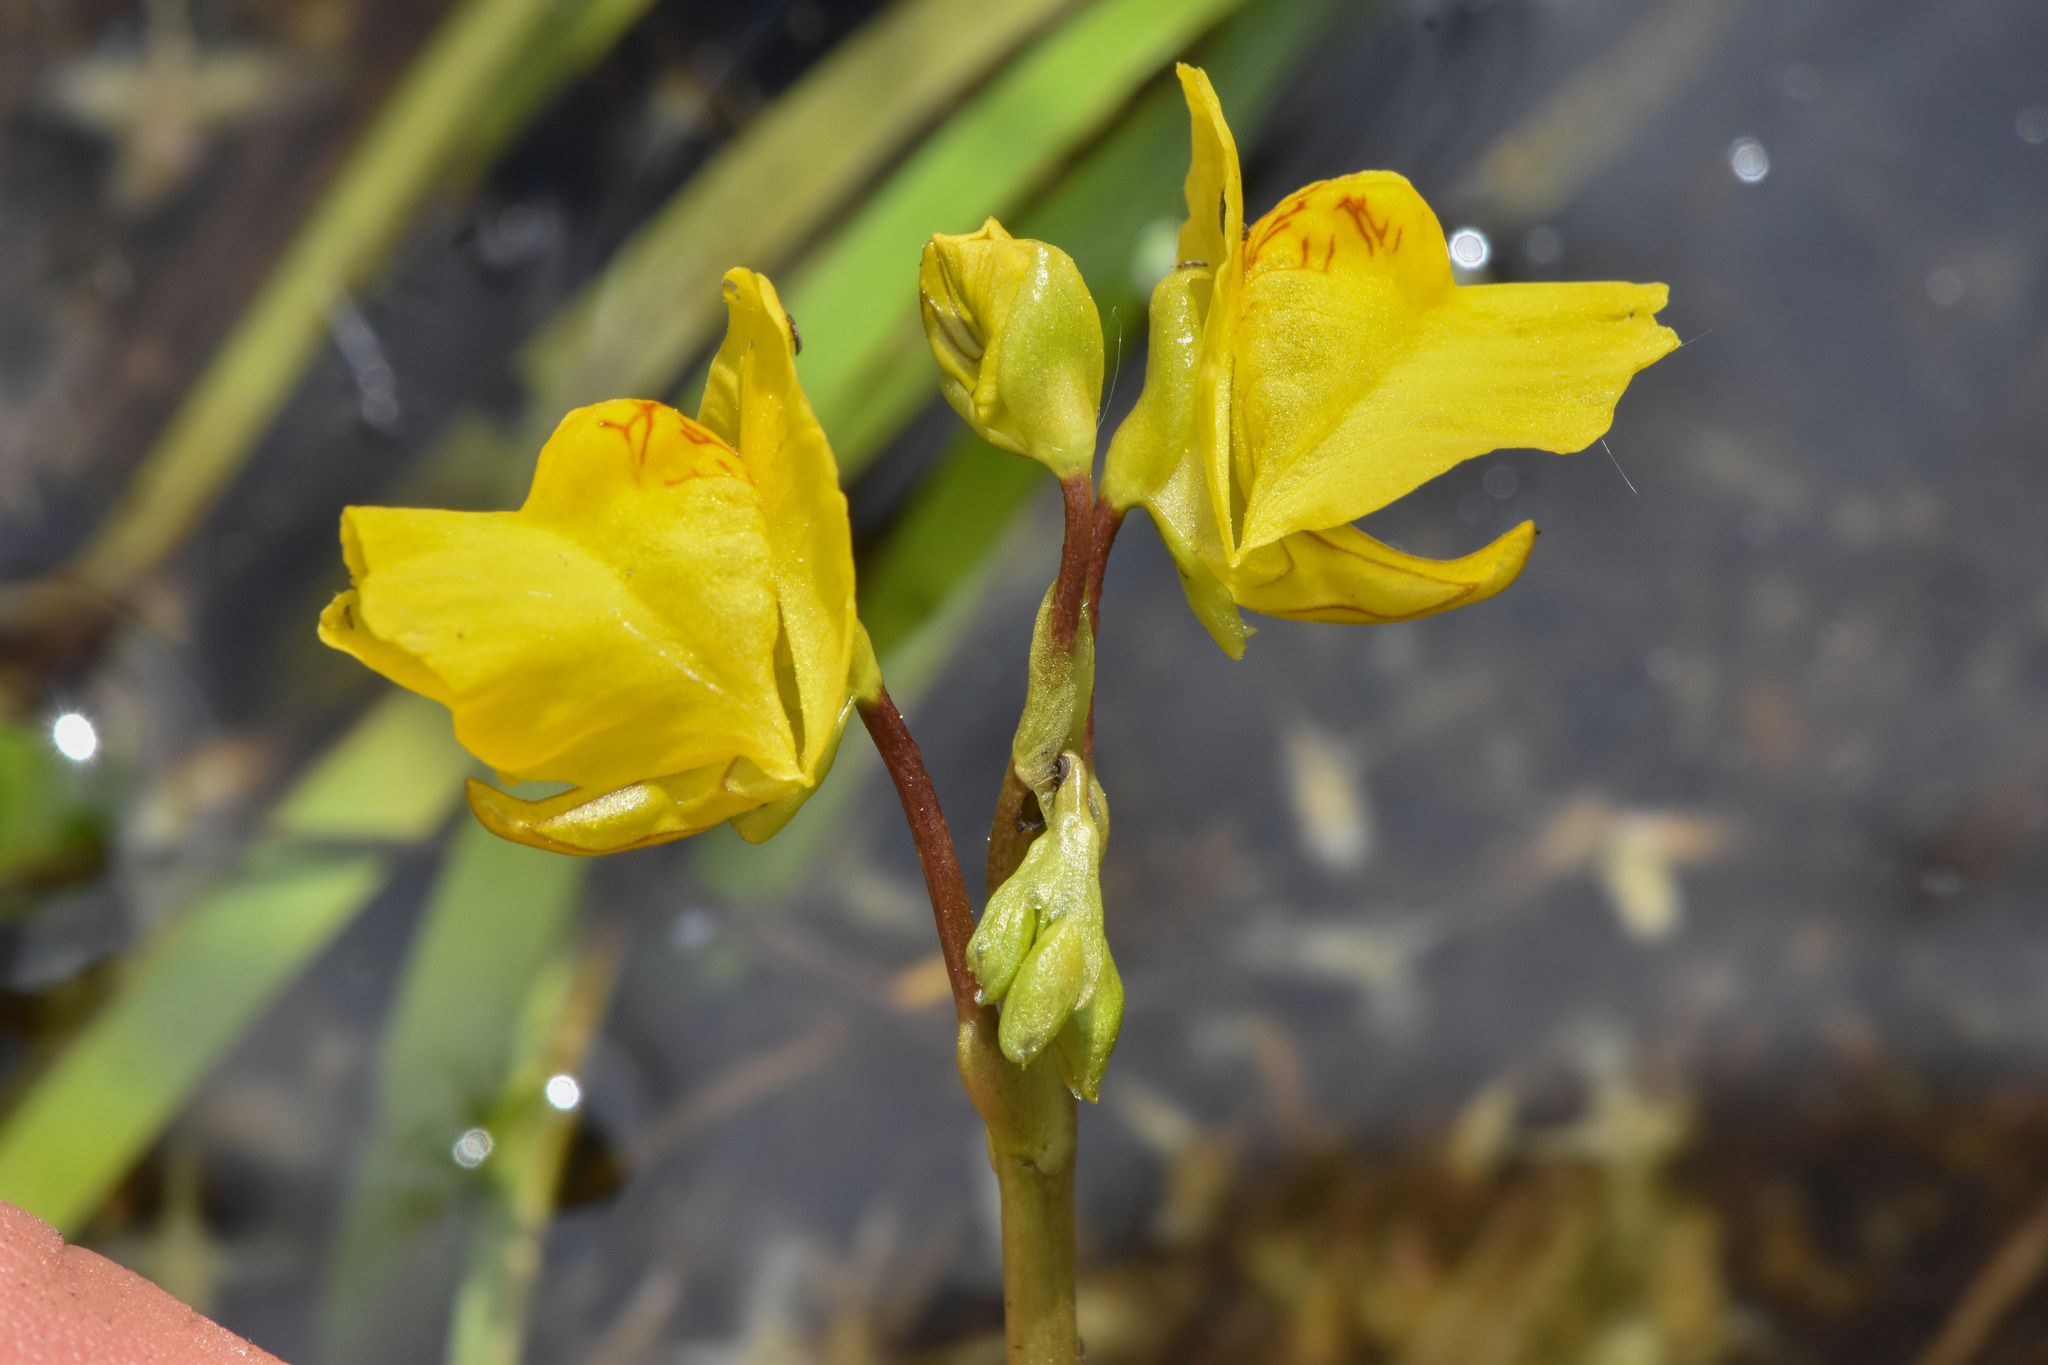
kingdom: Plantae
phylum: Tracheophyta
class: Magnoliopsida
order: Lamiales
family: Lentibulariaceae
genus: Utricularia
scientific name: Utricularia macrorhiza
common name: Common bladderwort
